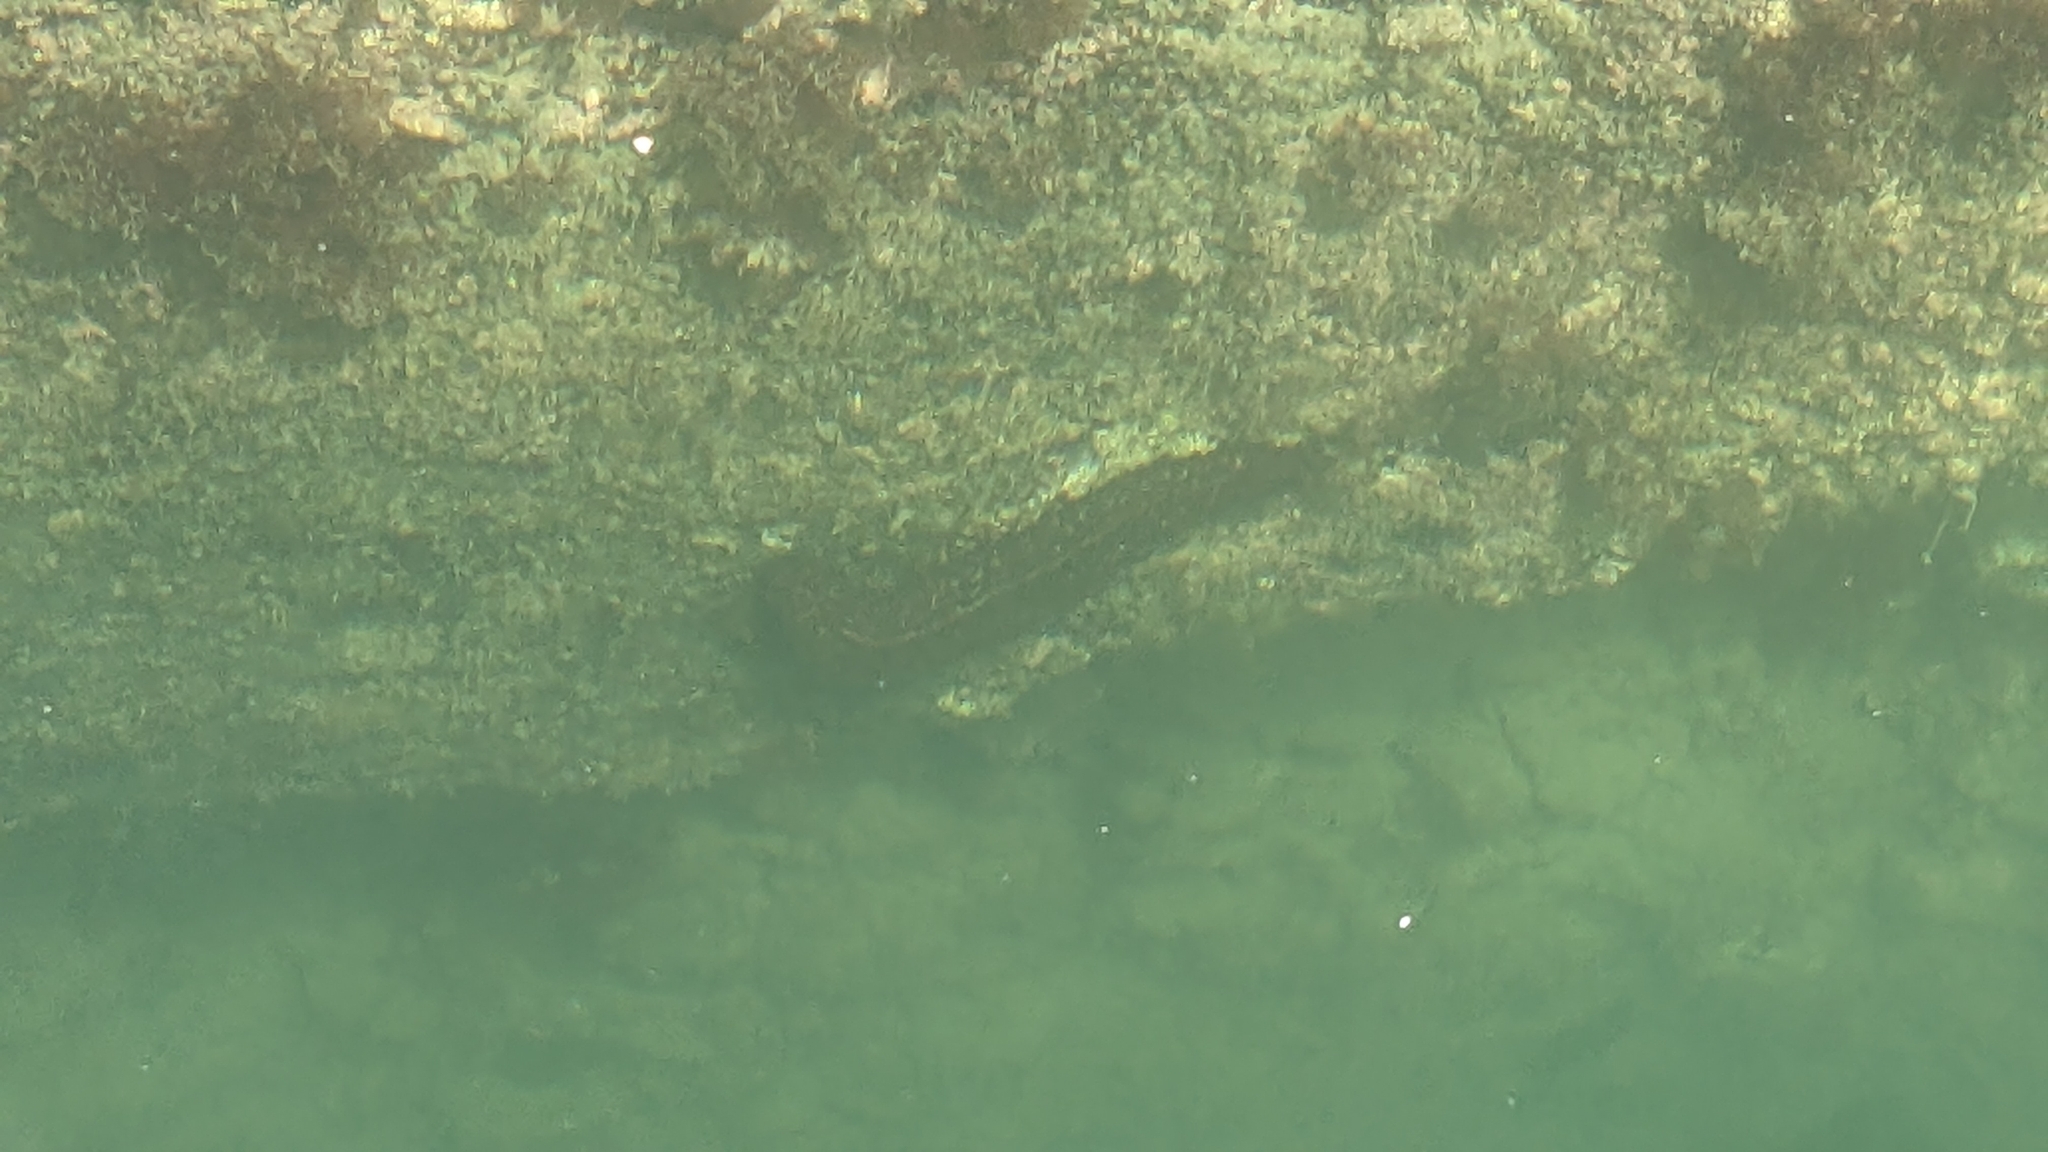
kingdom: Animalia
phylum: Echinodermata
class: Holothuroidea
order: Synallactida
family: Stichopodidae
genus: Australostichopus
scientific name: Australostichopus mollis
